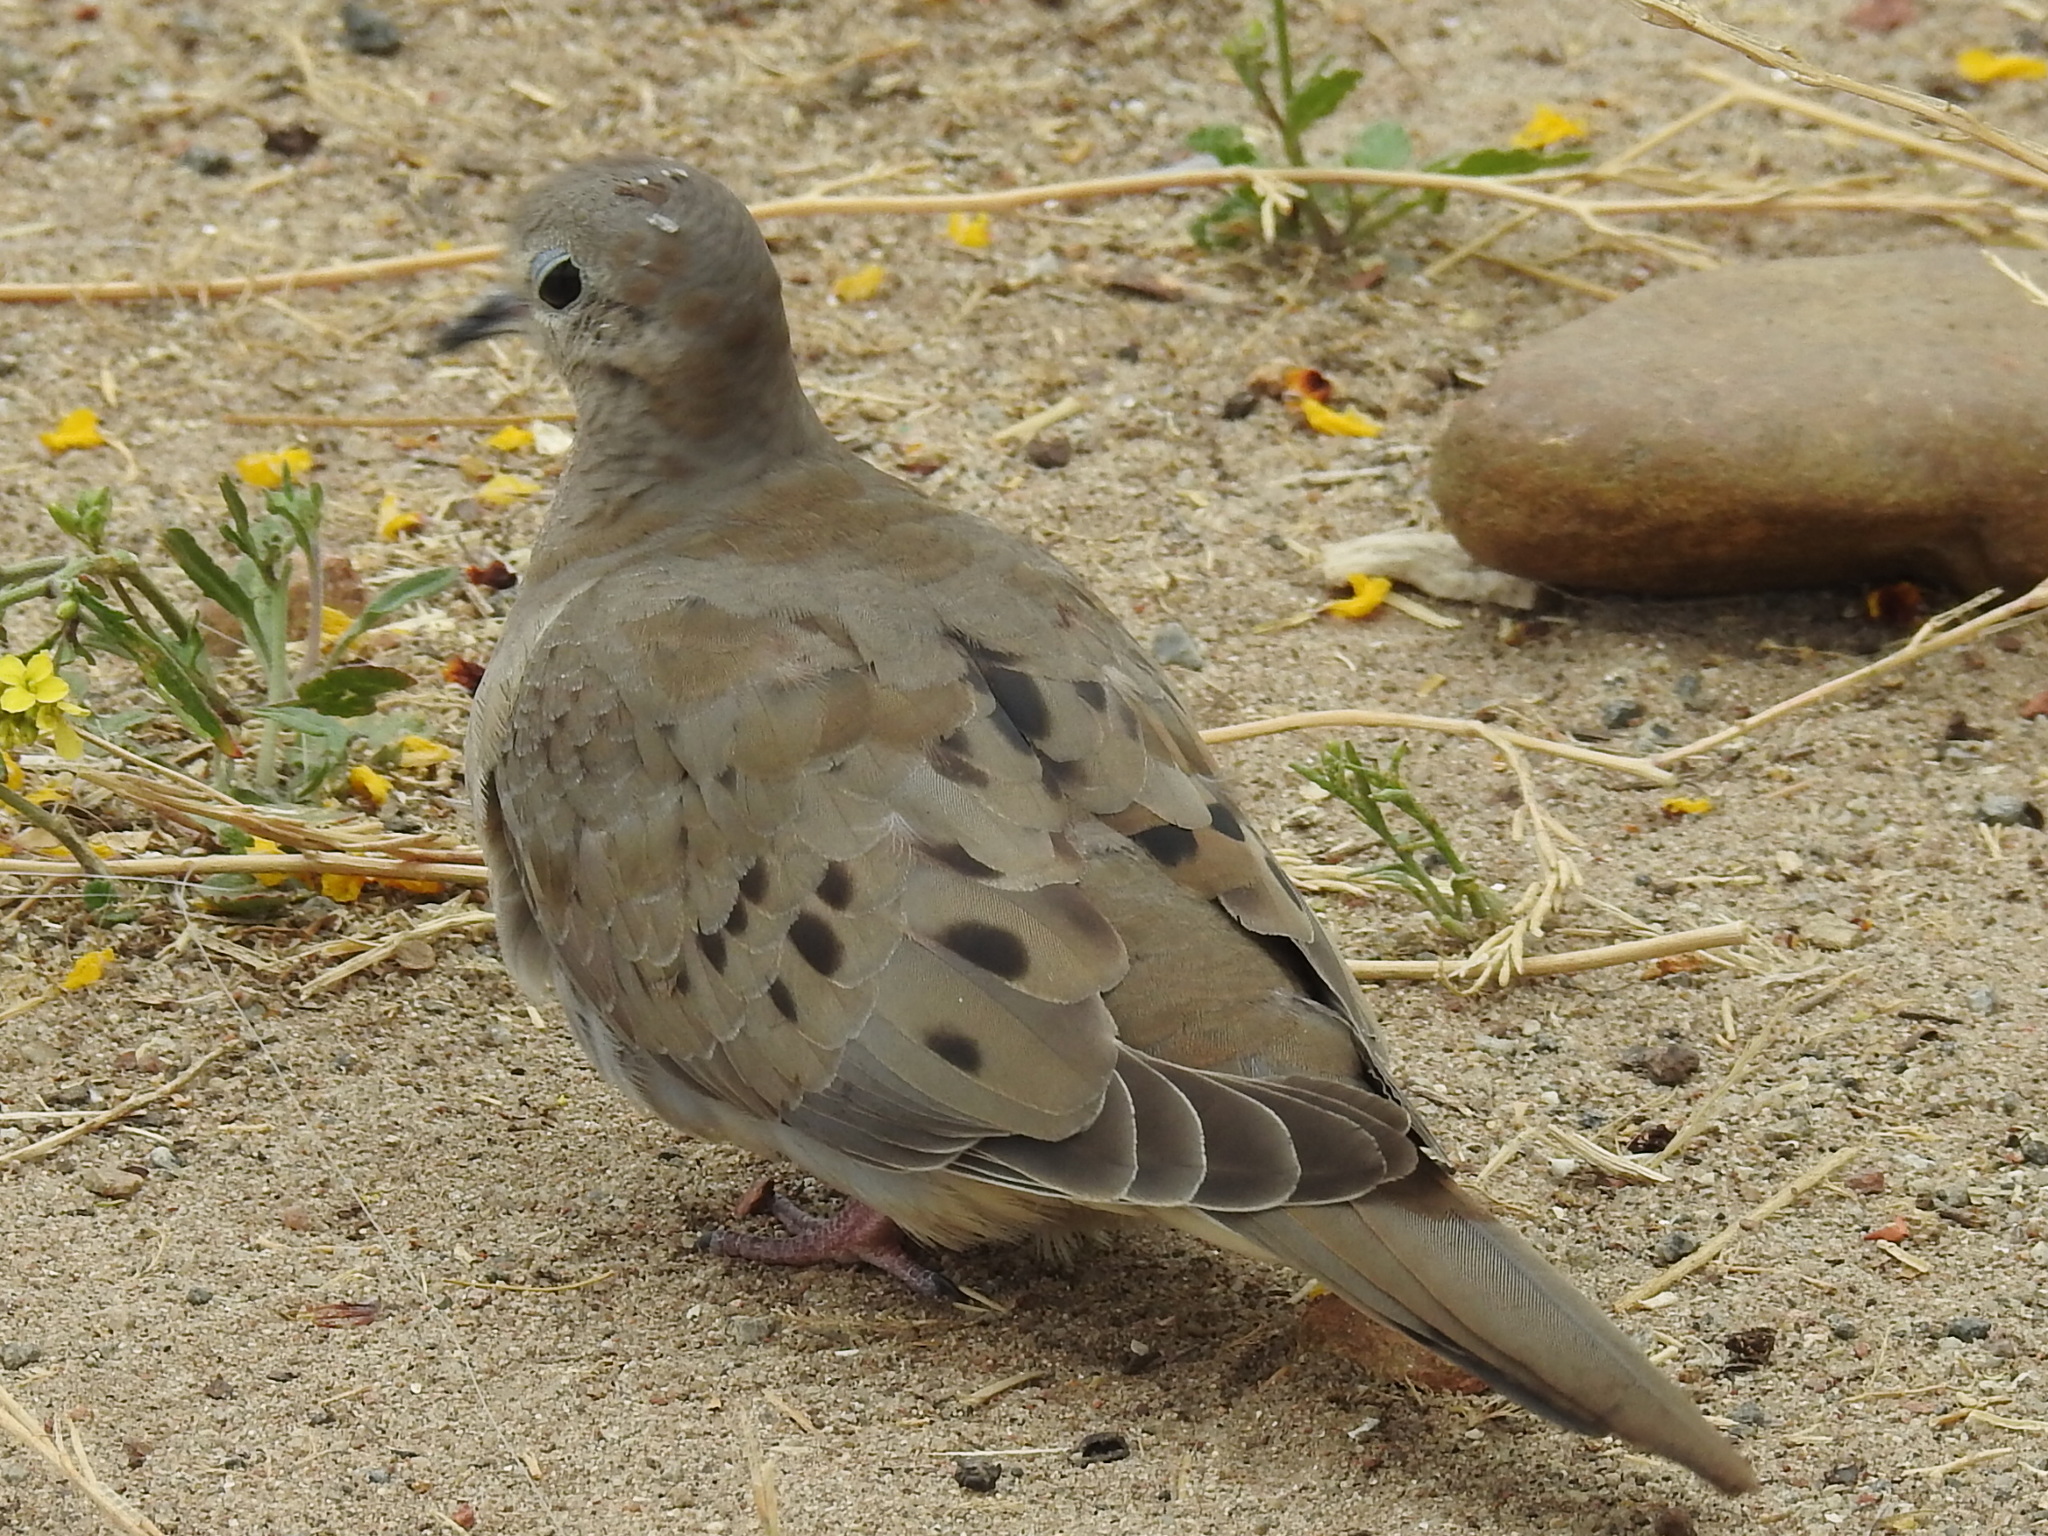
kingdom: Animalia
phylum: Chordata
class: Aves
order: Columbiformes
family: Columbidae
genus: Zenaida
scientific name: Zenaida macroura
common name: Mourning dove
